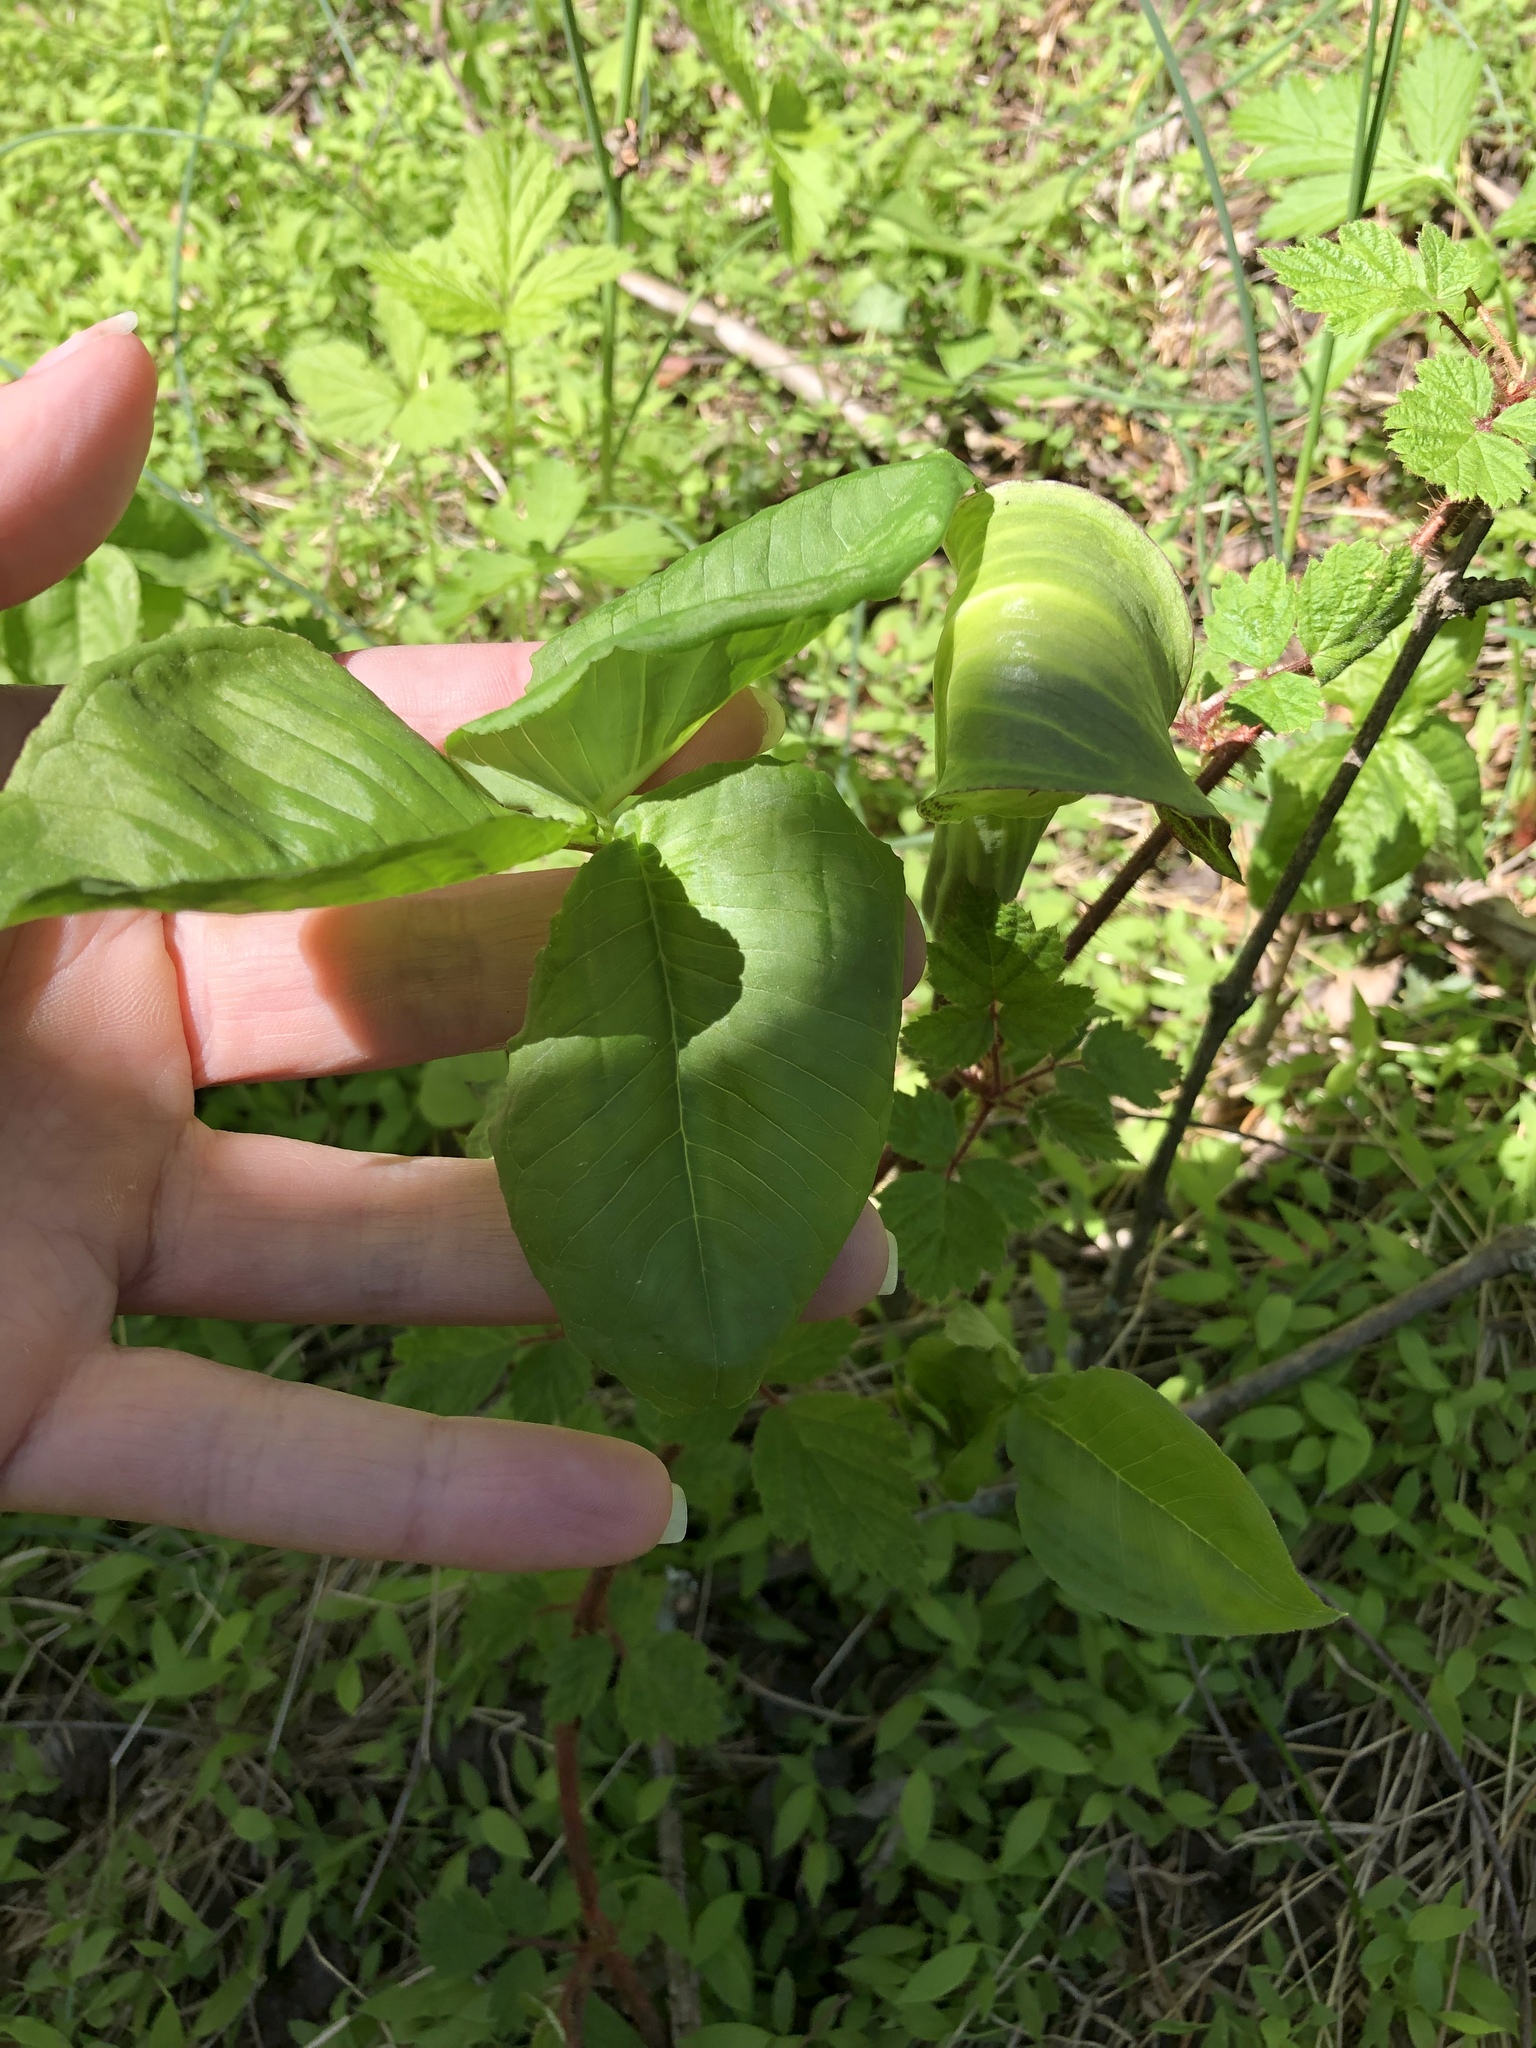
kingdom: Plantae
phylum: Tracheophyta
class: Liliopsida
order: Alismatales
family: Araceae
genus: Arisaema
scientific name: Arisaema triphyllum
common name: Jack-in-the-pulpit
